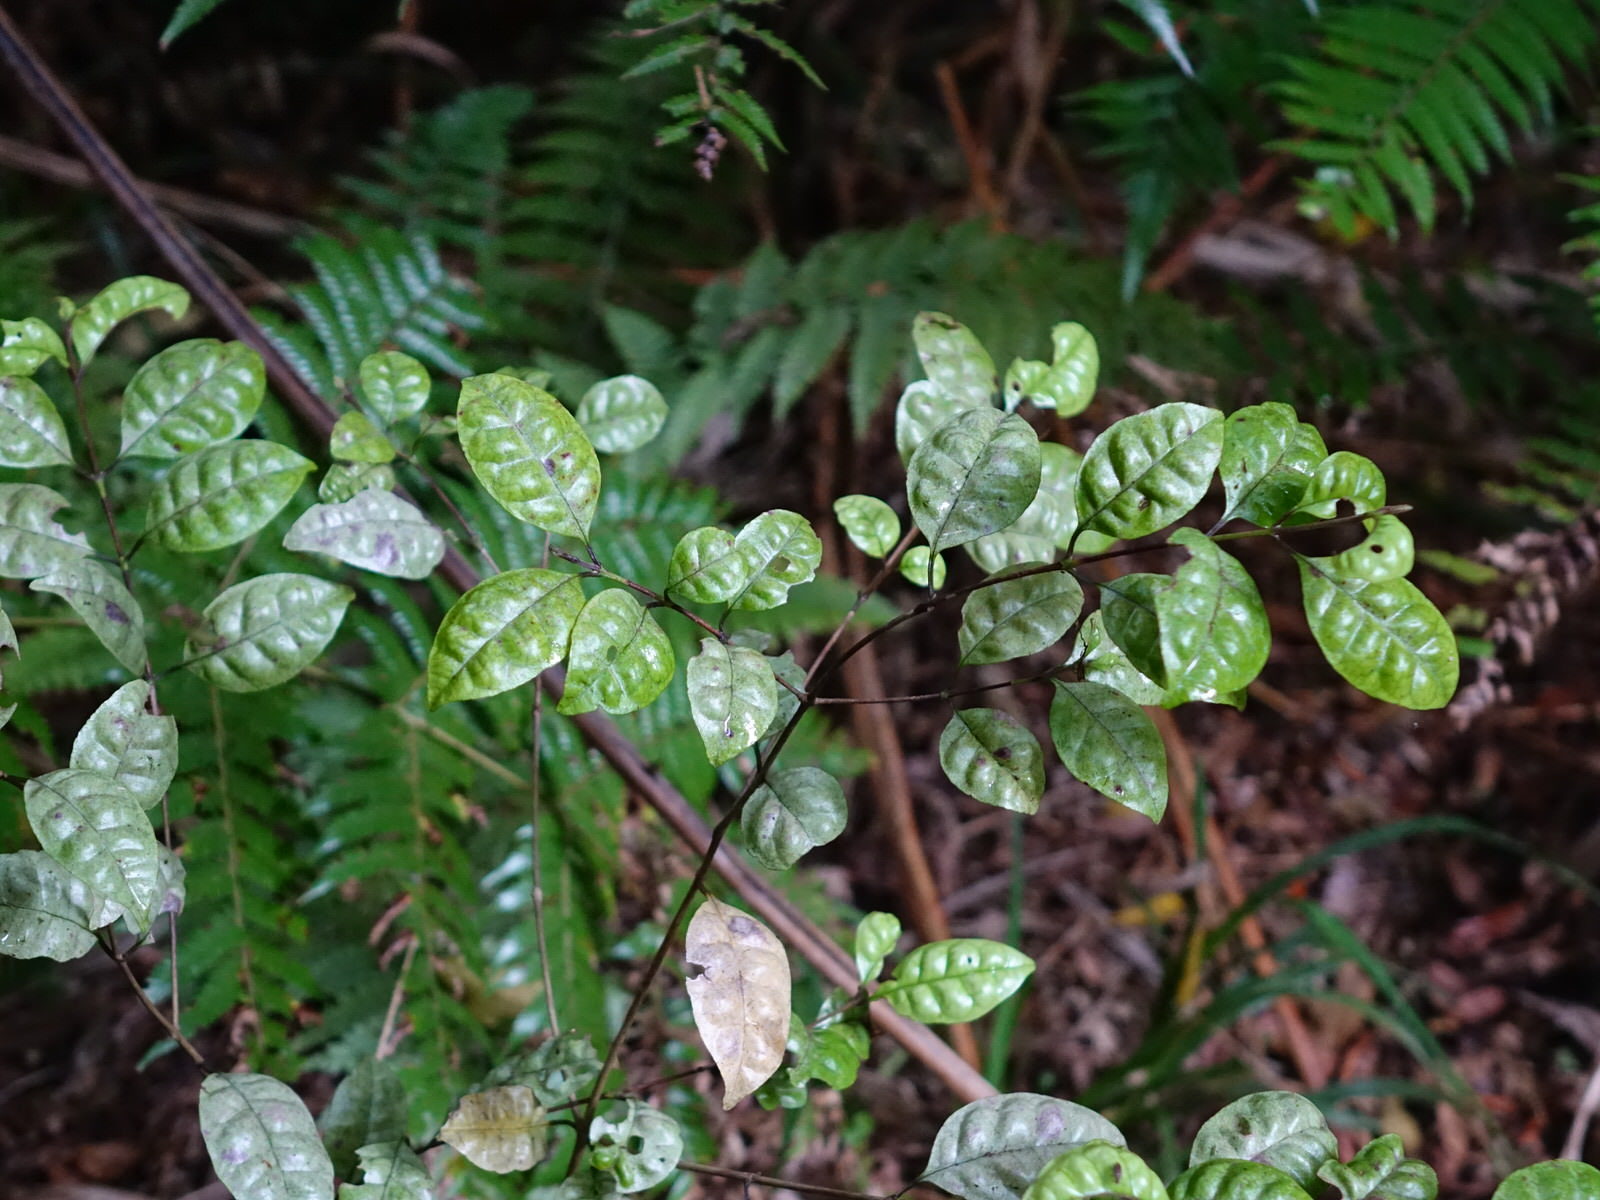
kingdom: Plantae
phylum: Tracheophyta
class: Magnoliopsida
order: Myrtales
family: Myrtaceae
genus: Lophomyrtus
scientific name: Lophomyrtus bullata
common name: Rama rama
